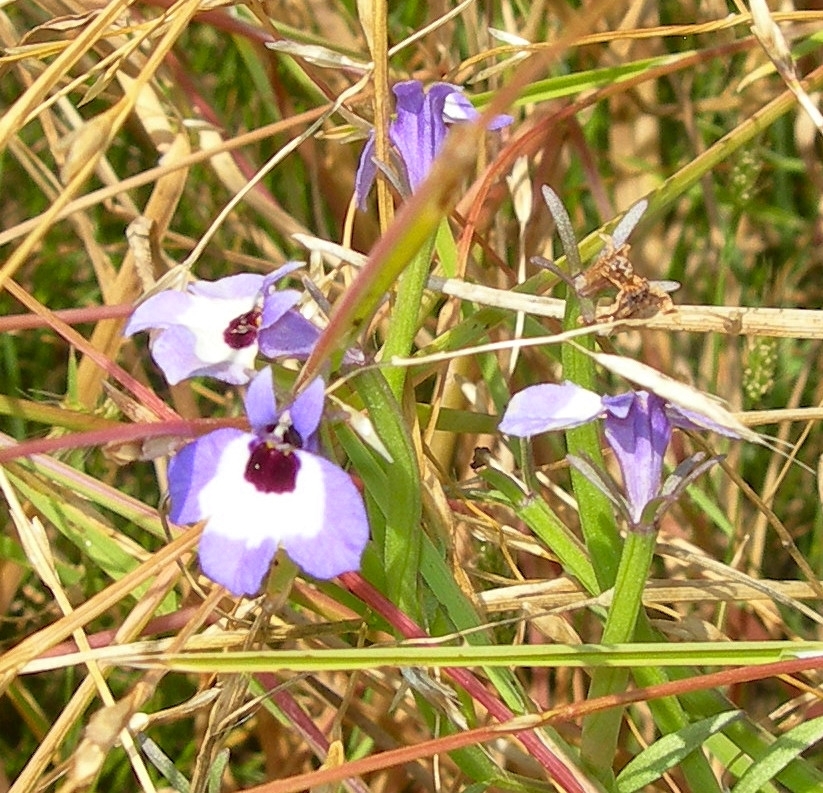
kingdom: Plantae
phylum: Tracheophyta
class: Magnoliopsida
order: Asterales
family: Campanulaceae
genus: Downingia
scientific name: Downingia concolor
